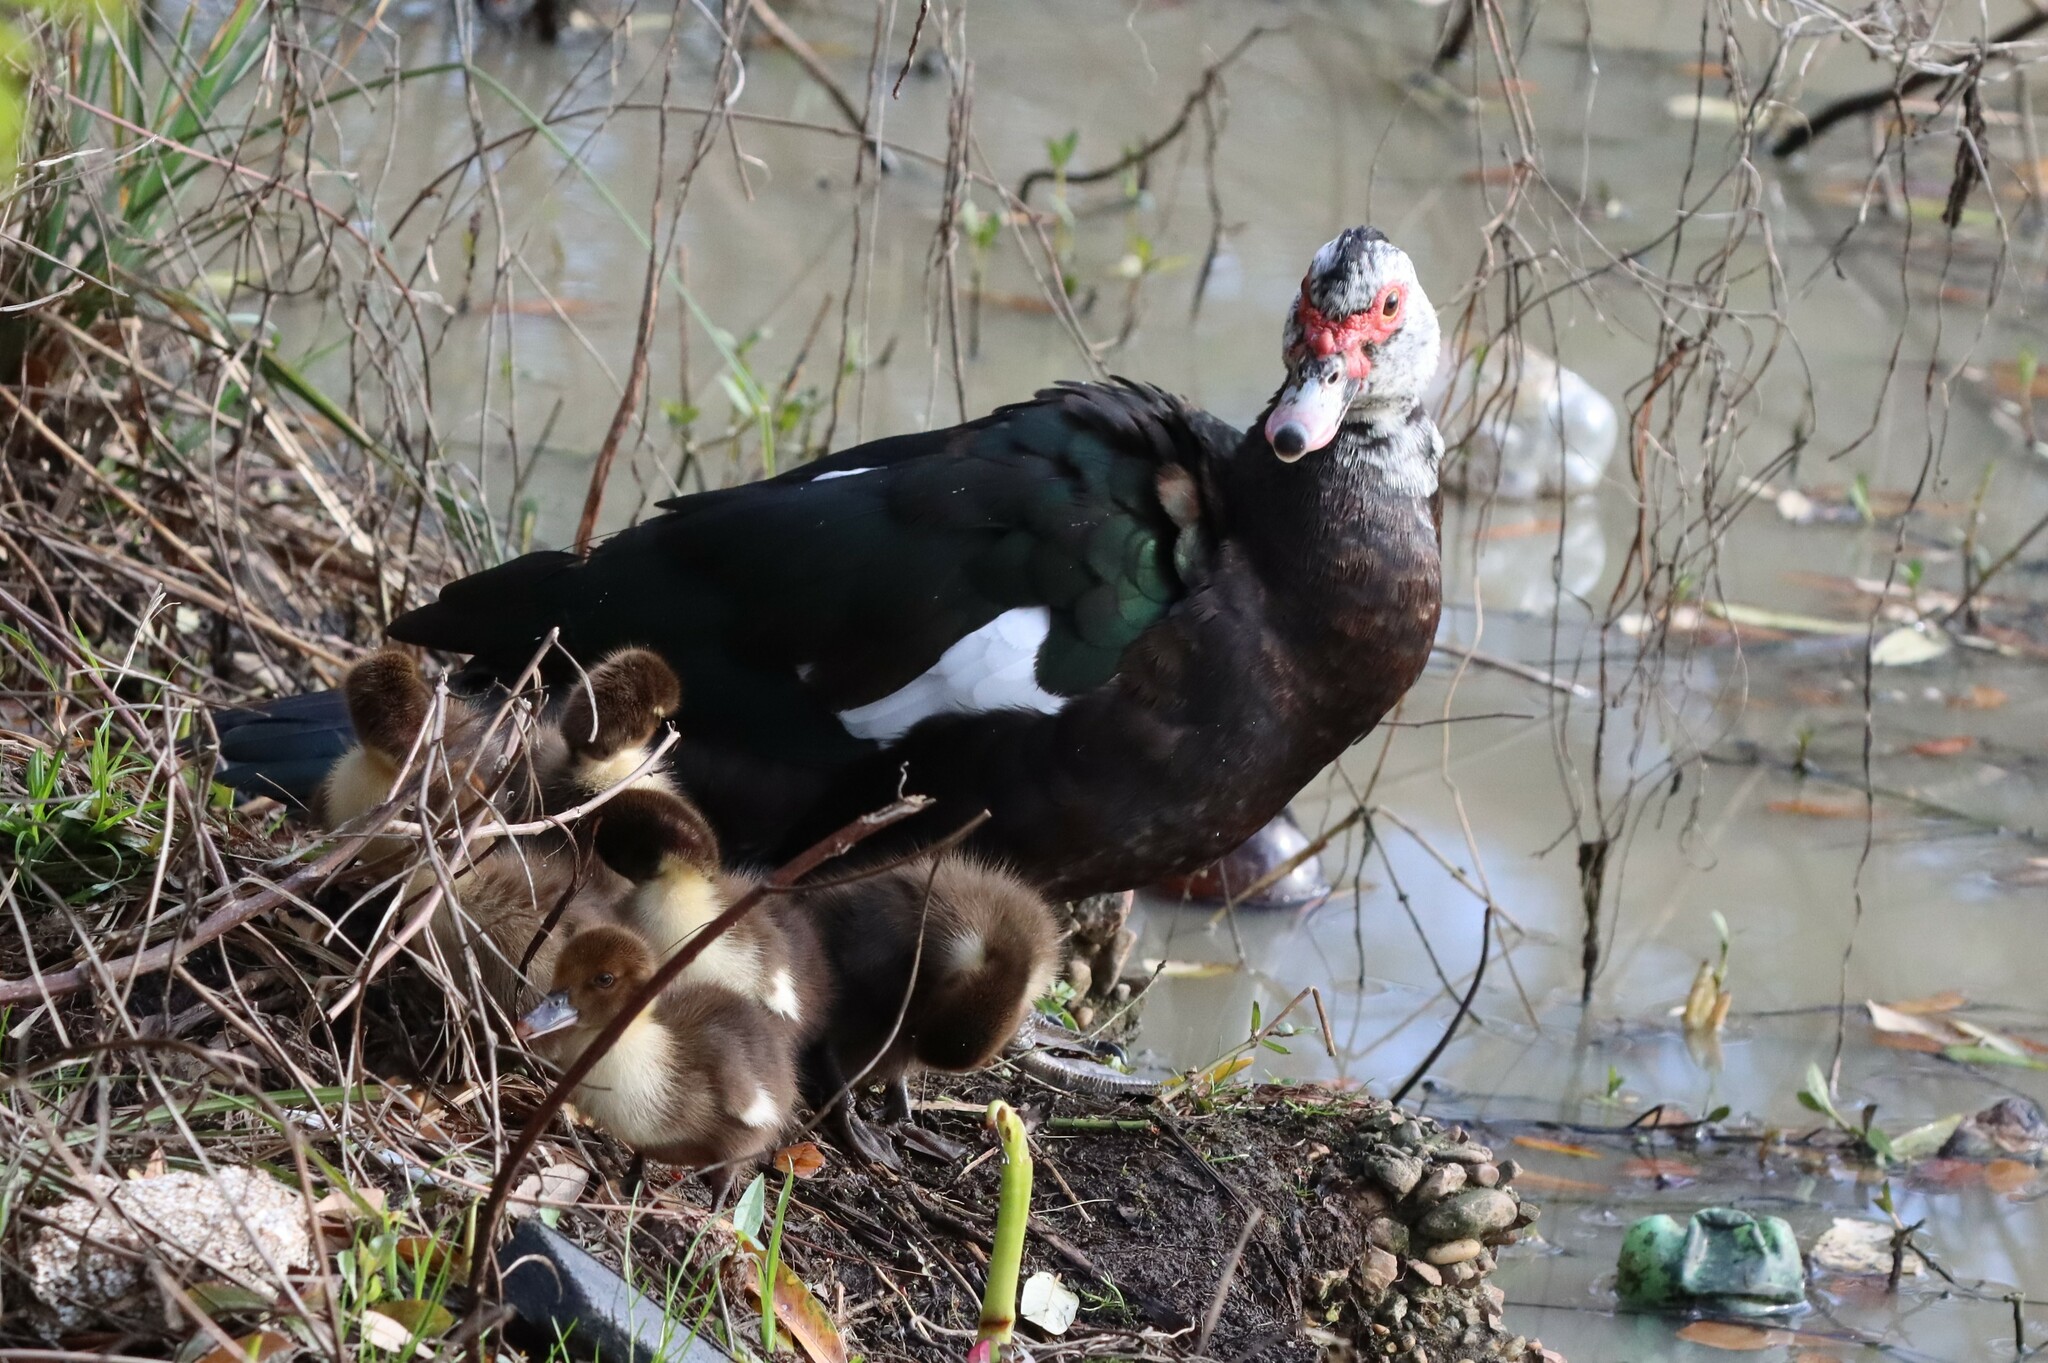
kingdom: Animalia
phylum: Chordata
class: Aves
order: Anseriformes
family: Anatidae
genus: Cairina
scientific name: Cairina moschata
